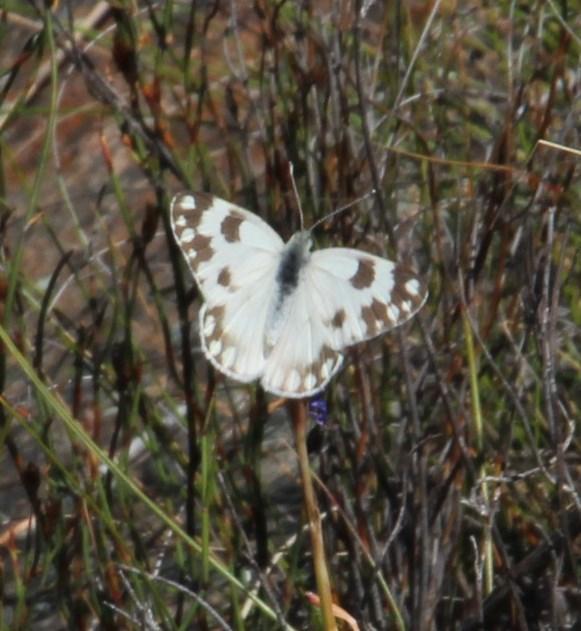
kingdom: Animalia
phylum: Arthropoda
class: Insecta
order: Lepidoptera
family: Pieridae
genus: Pontia
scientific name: Pontia helice
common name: Meadow white
